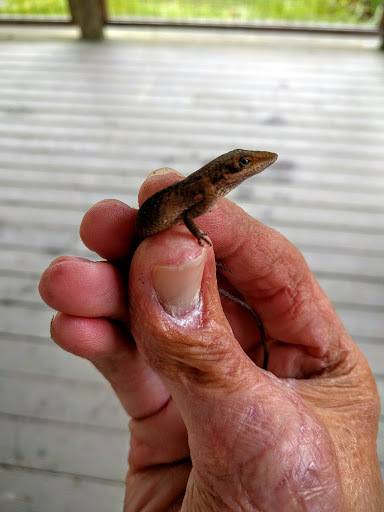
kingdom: Animalia
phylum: Chordata
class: Squamata
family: Dactyloidae
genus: Anolis
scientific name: Anolis carolinensis
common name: Green anole
